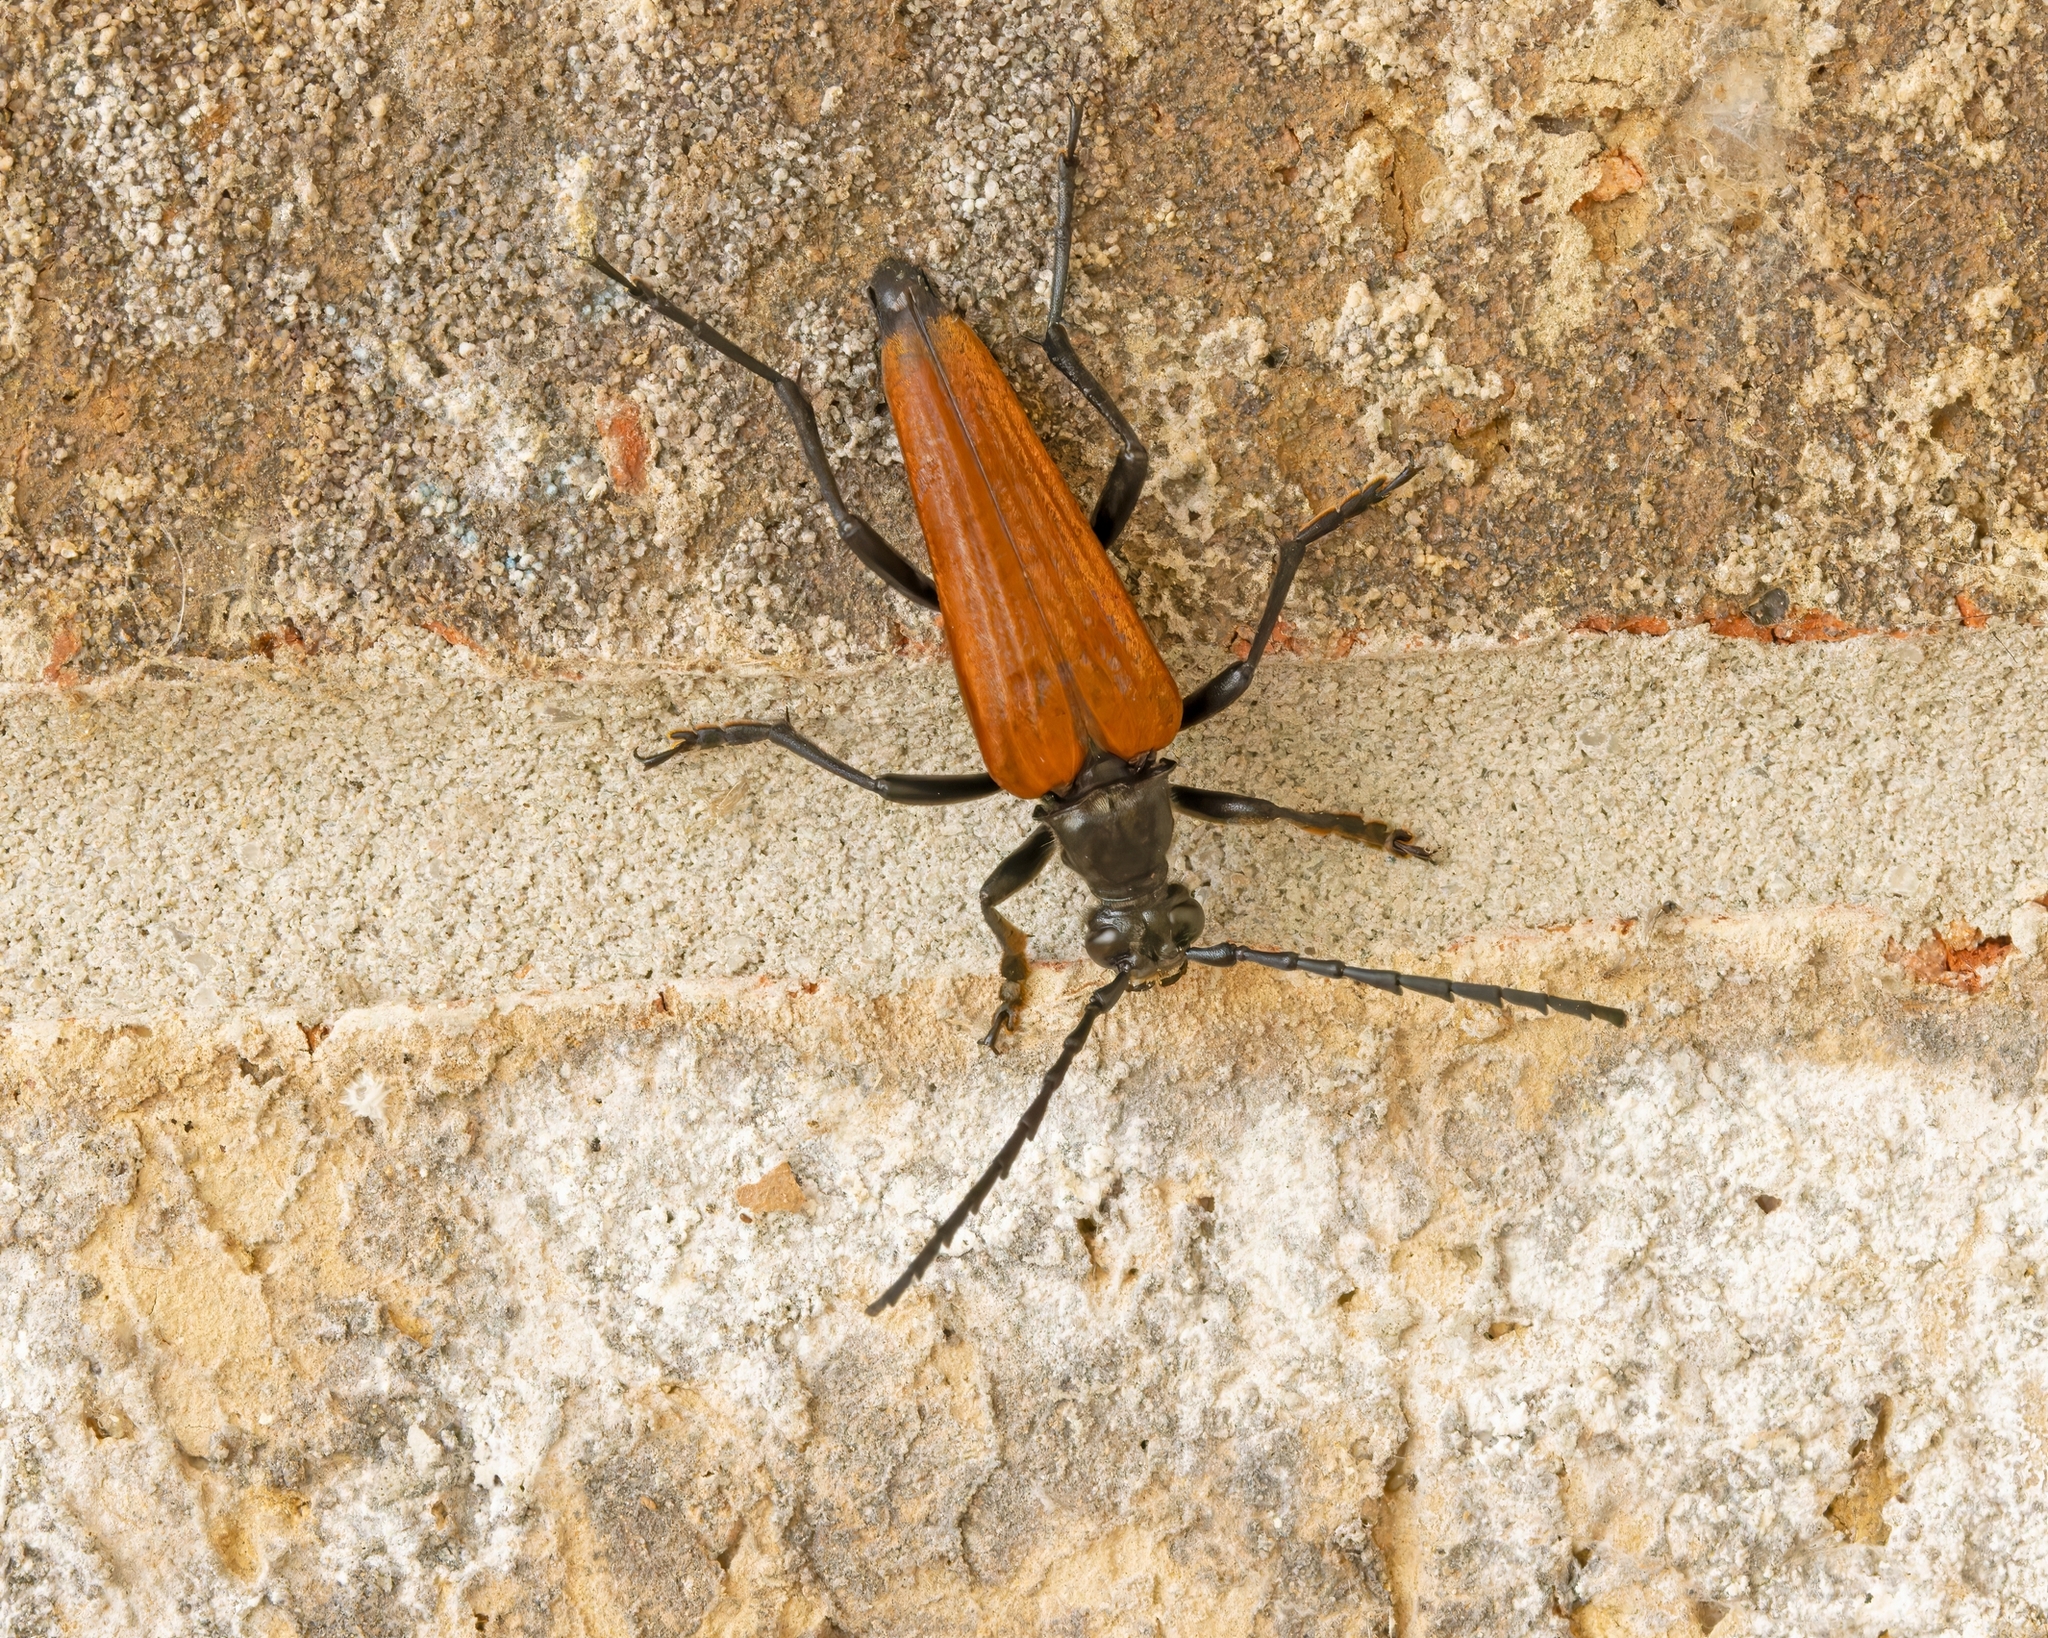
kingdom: Animalia
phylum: Arthropoda
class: Insecta
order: Coleoptera
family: Cerambycidae
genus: Stenelytrana
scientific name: Stenelytrana gigas
